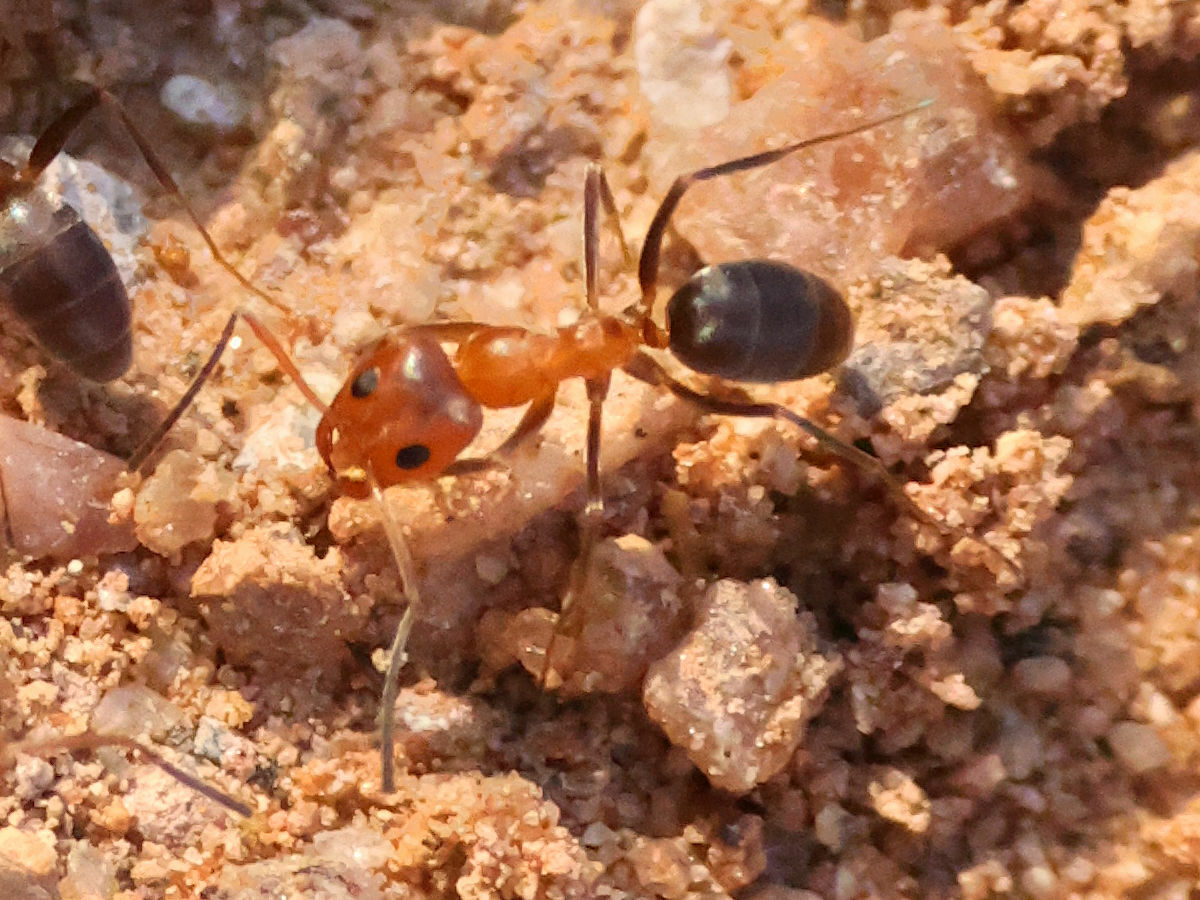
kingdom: Animalia
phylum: Arthropoda
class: Insecta
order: Hymenoptera
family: Formicidae
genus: Dorymyrmex
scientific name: Dorymyrmex bicolor
